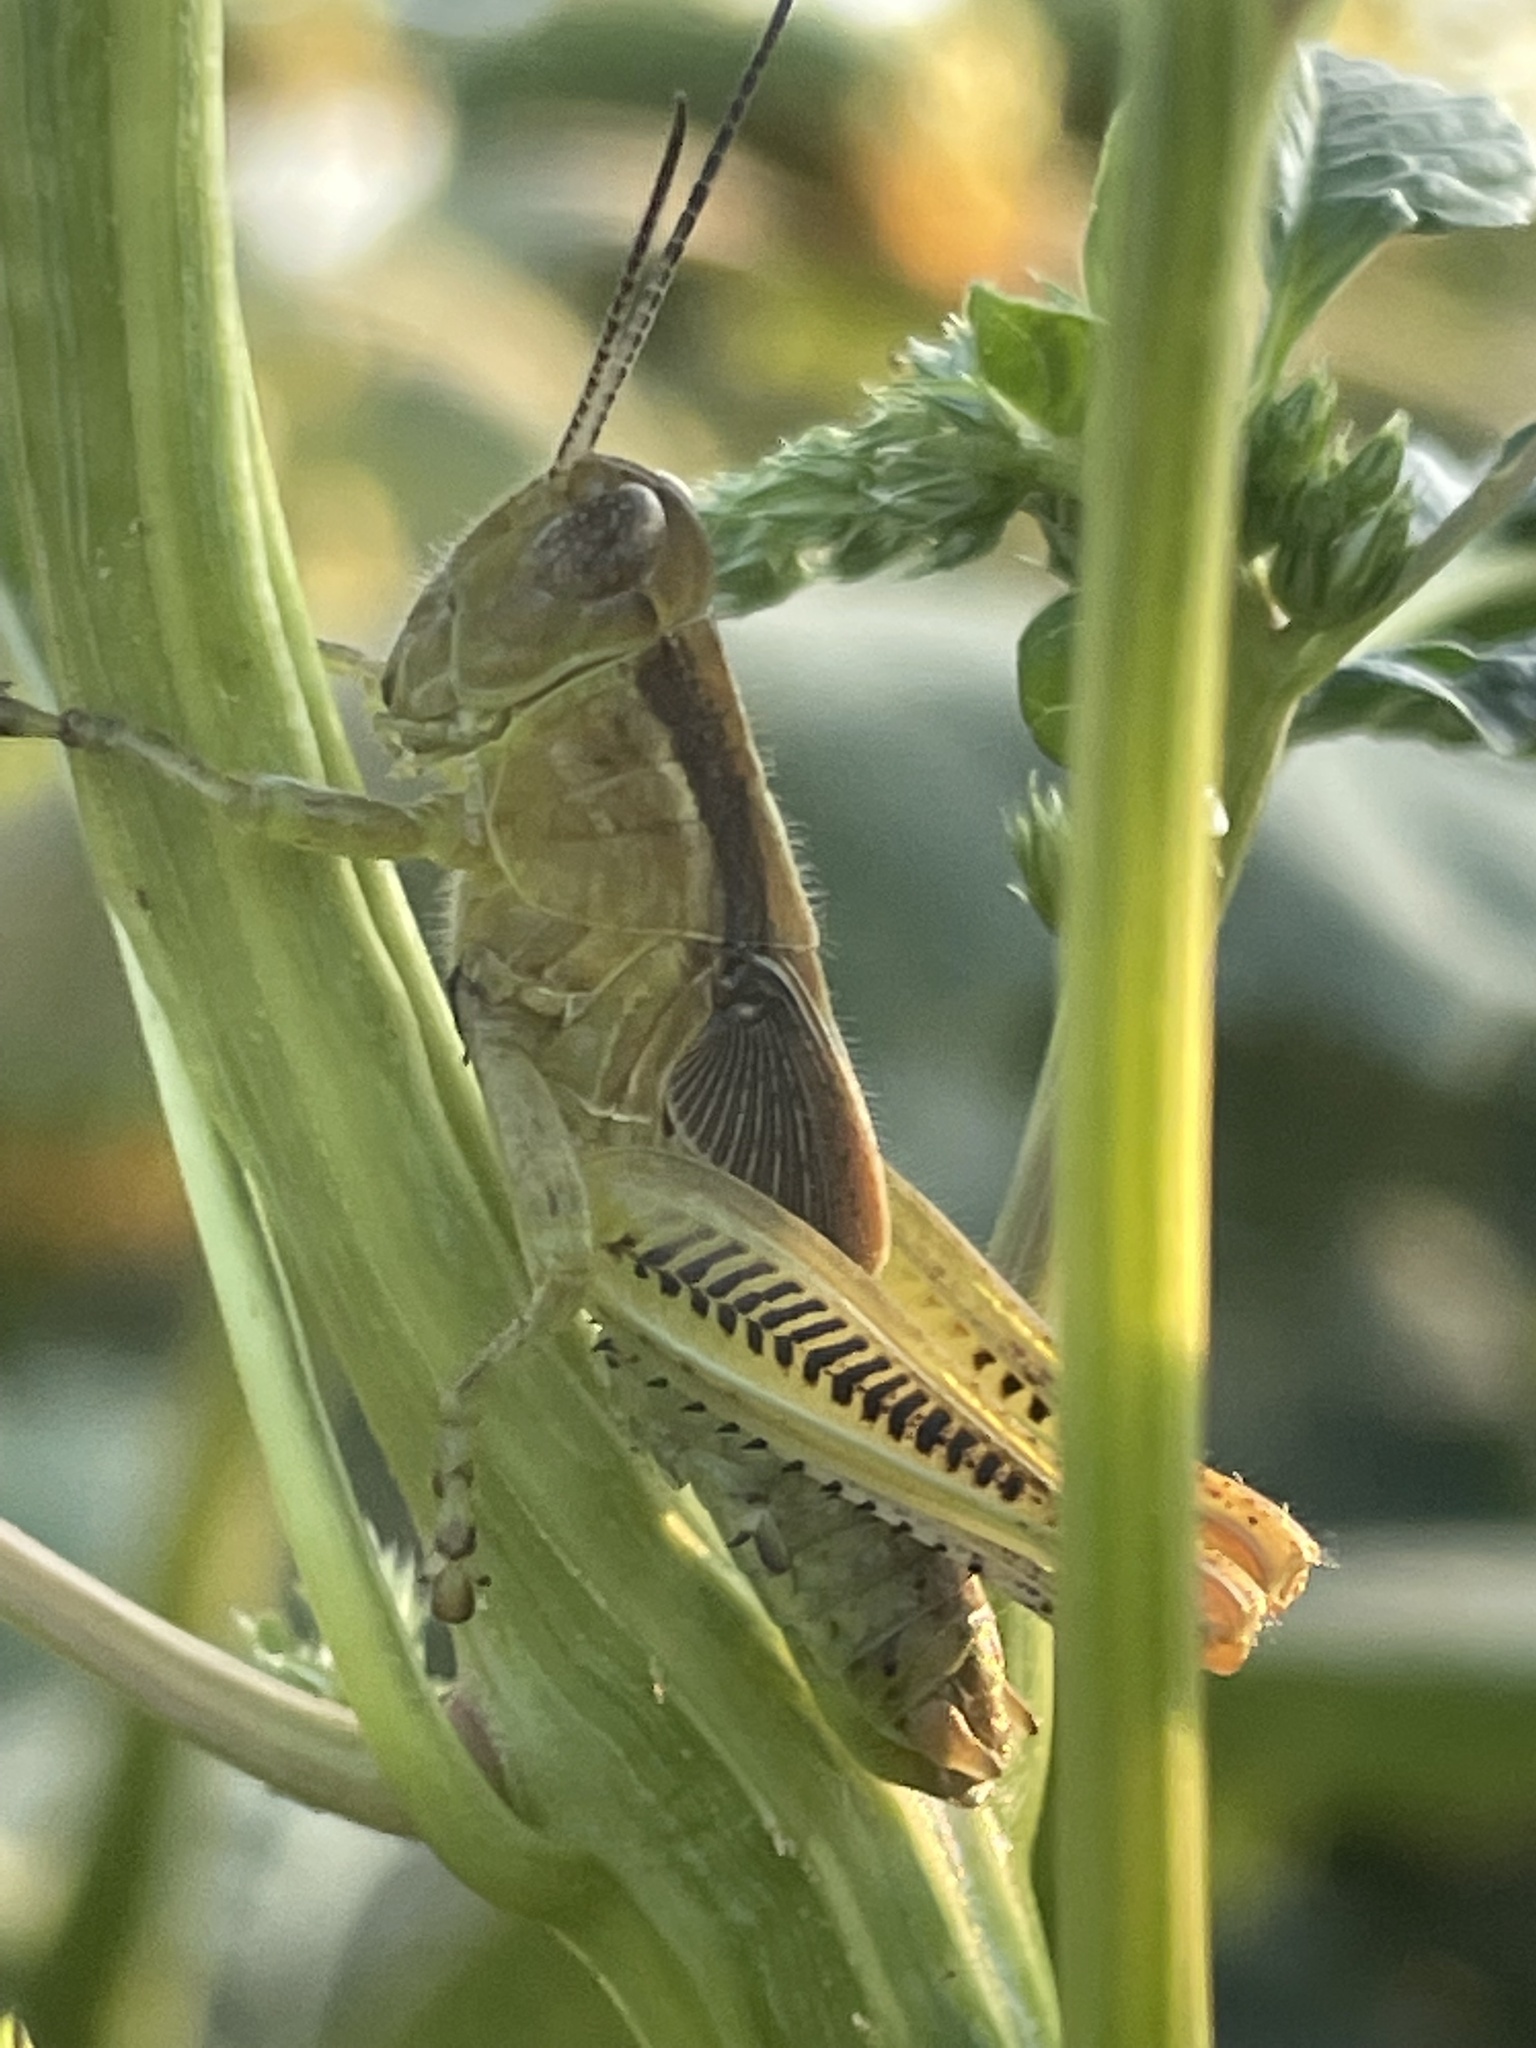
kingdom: Animalia
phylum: Arthropoda
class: Insecta
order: Orthoptera
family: Acrididae
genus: Melanoplus
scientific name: Melanoplus scudderi
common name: Scudder's short-winged locust
